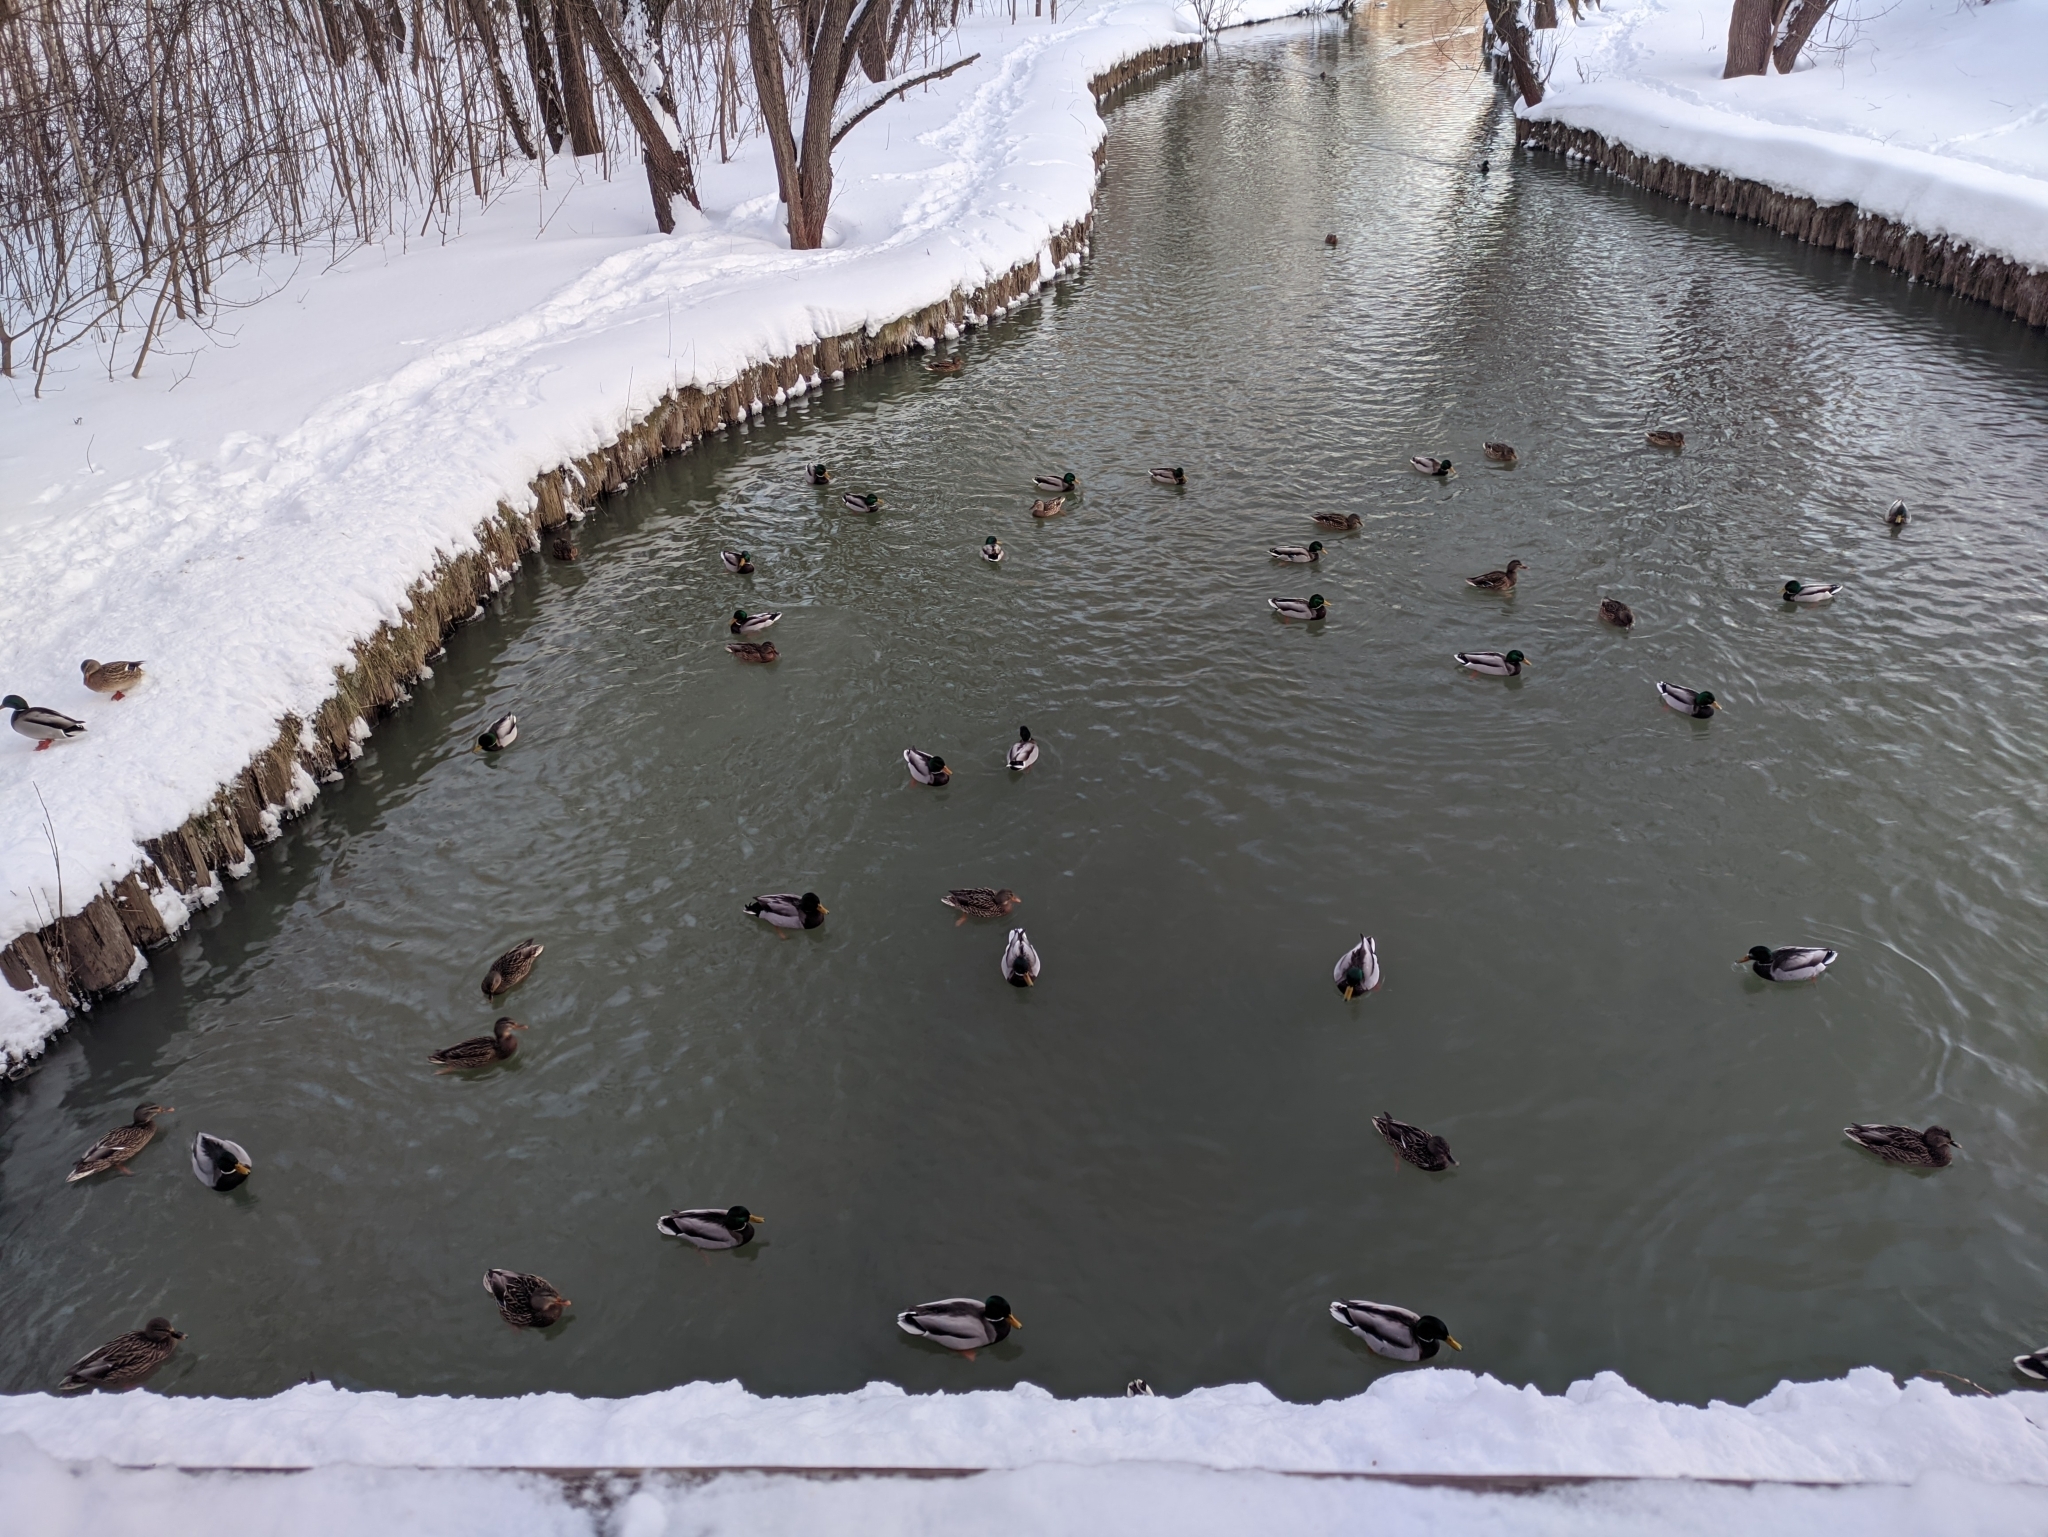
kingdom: Animalia
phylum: Chordata
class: Aves
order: Anseriformes
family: Anatidae
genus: Anas
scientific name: Anas platyrhynchos
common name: Mallard
